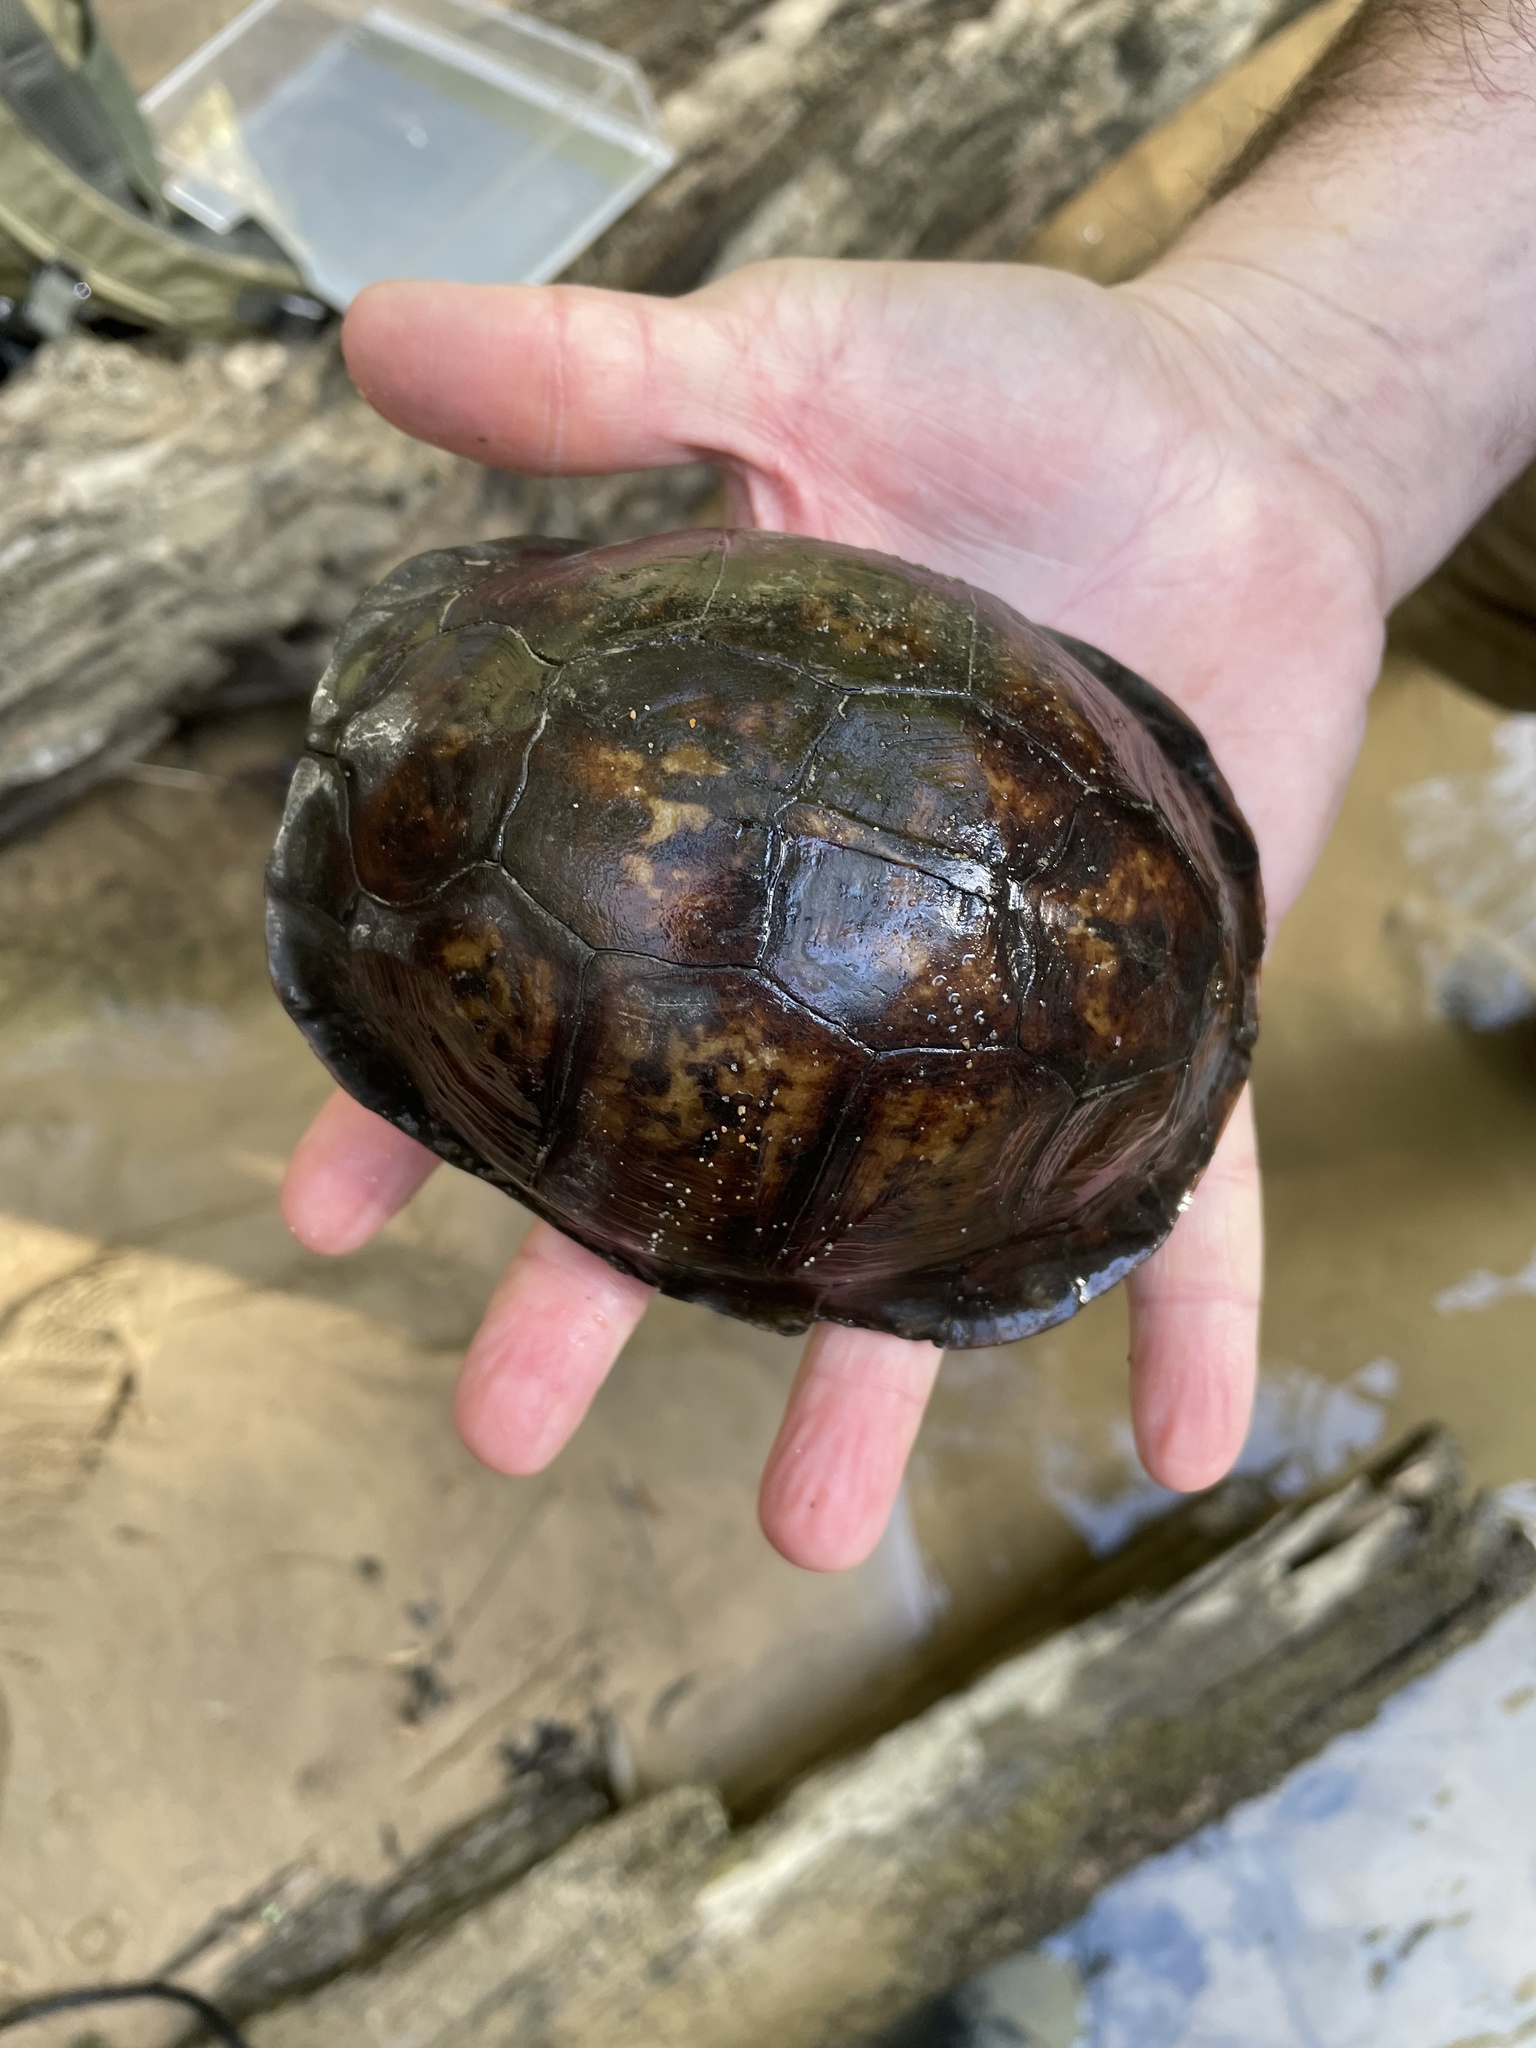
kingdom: Animalia
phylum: Chordata
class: Testudines
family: Emydidae
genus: Terrapene
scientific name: Terrapene carolina
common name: Common box turtle
